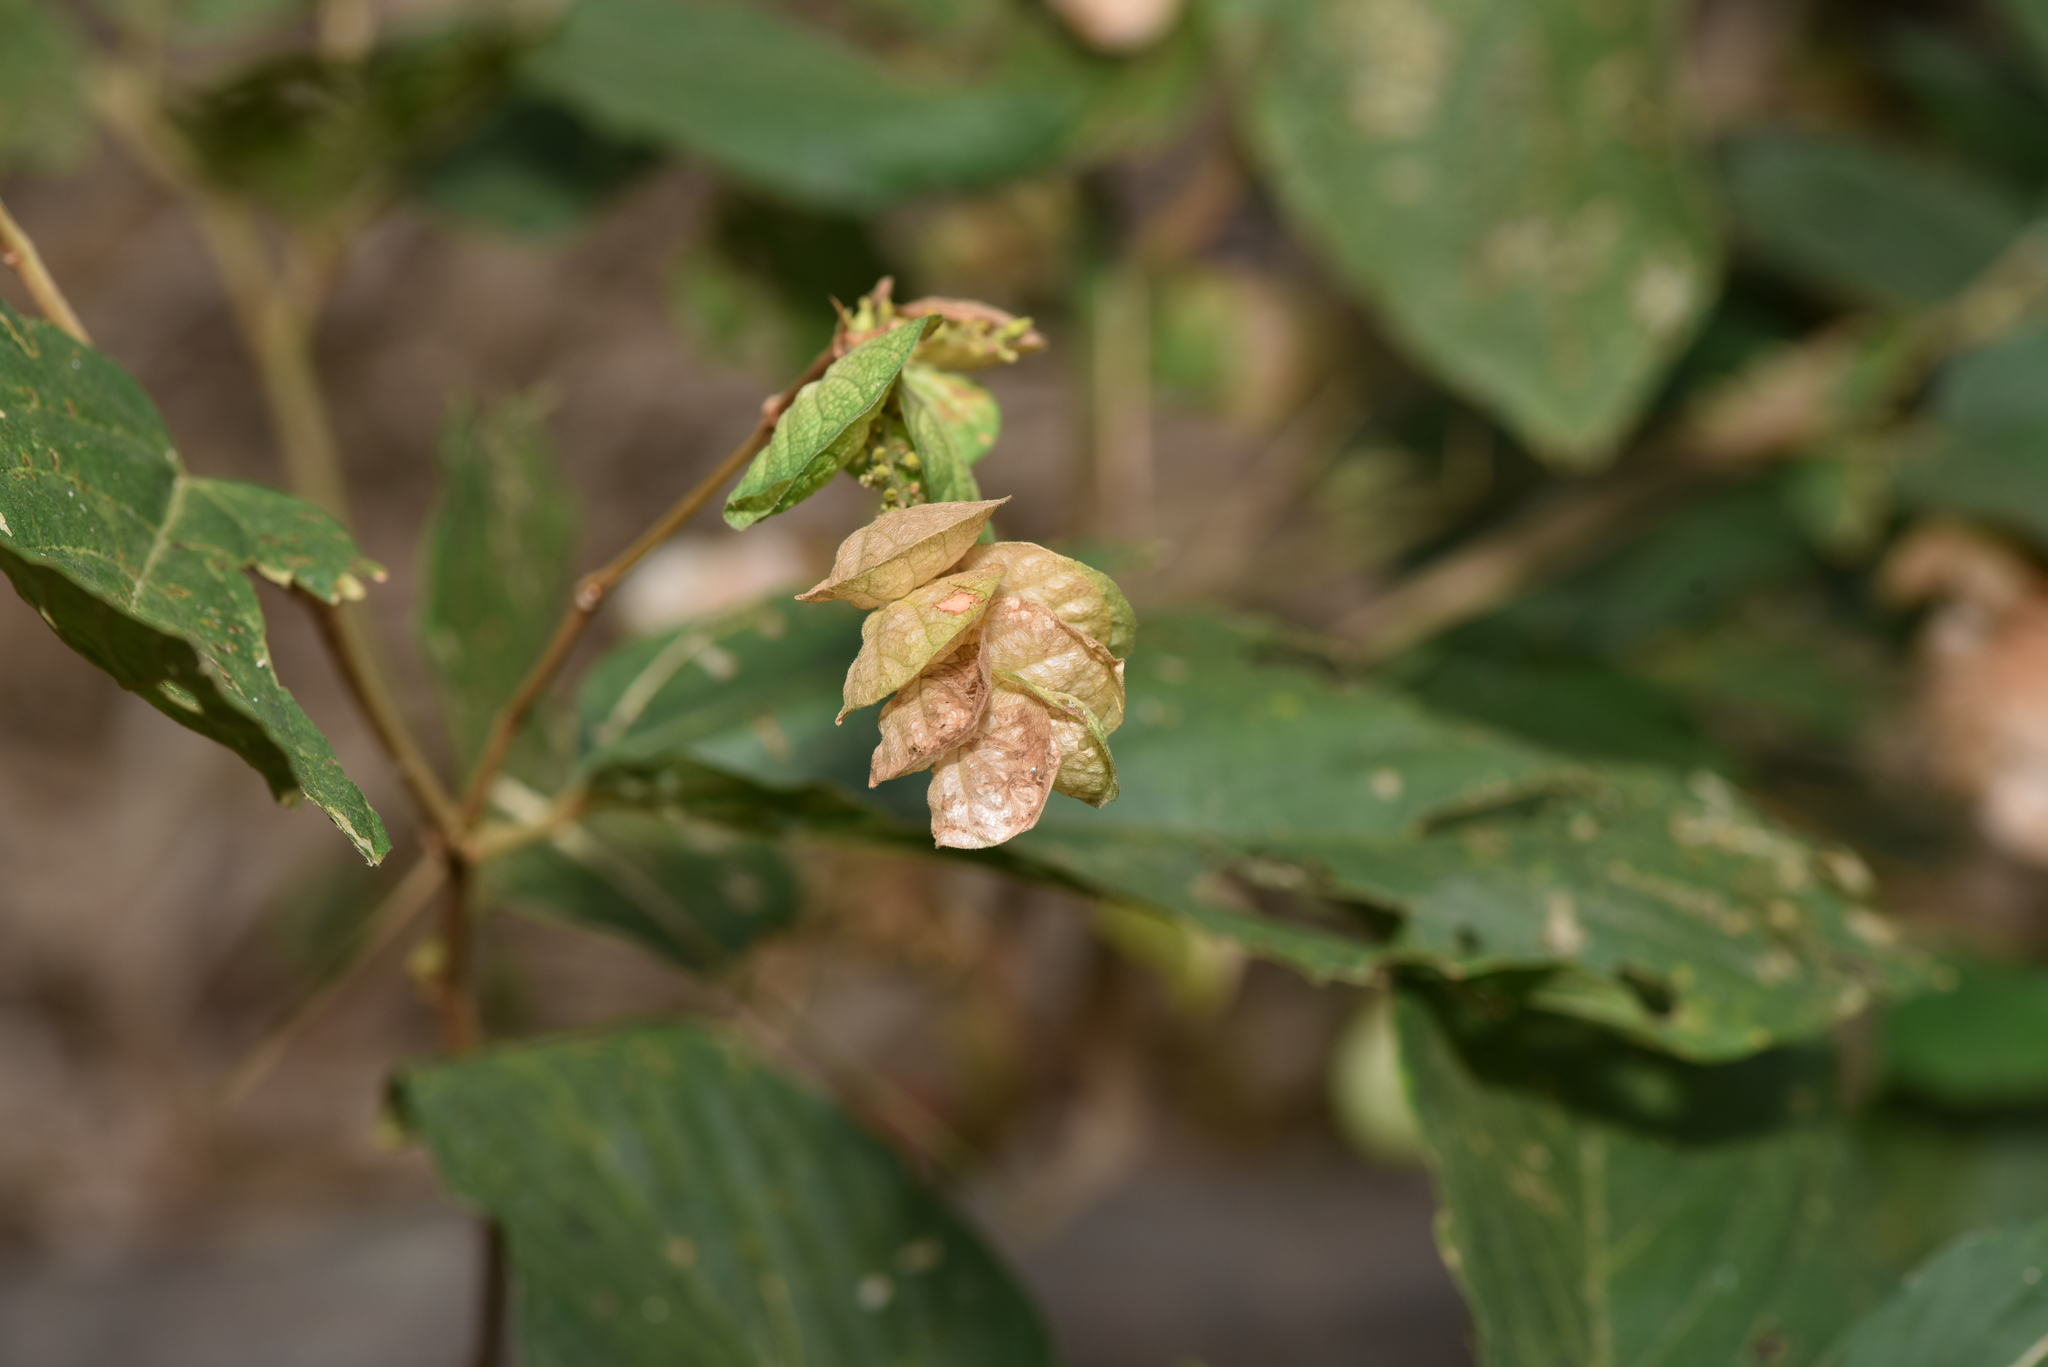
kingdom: Plantae
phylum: Tracheophyta
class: Magnoliopsida
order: Fabales
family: Fabaceae
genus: Flemingia
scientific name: Flemingia strobilifera
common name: Wild hops
